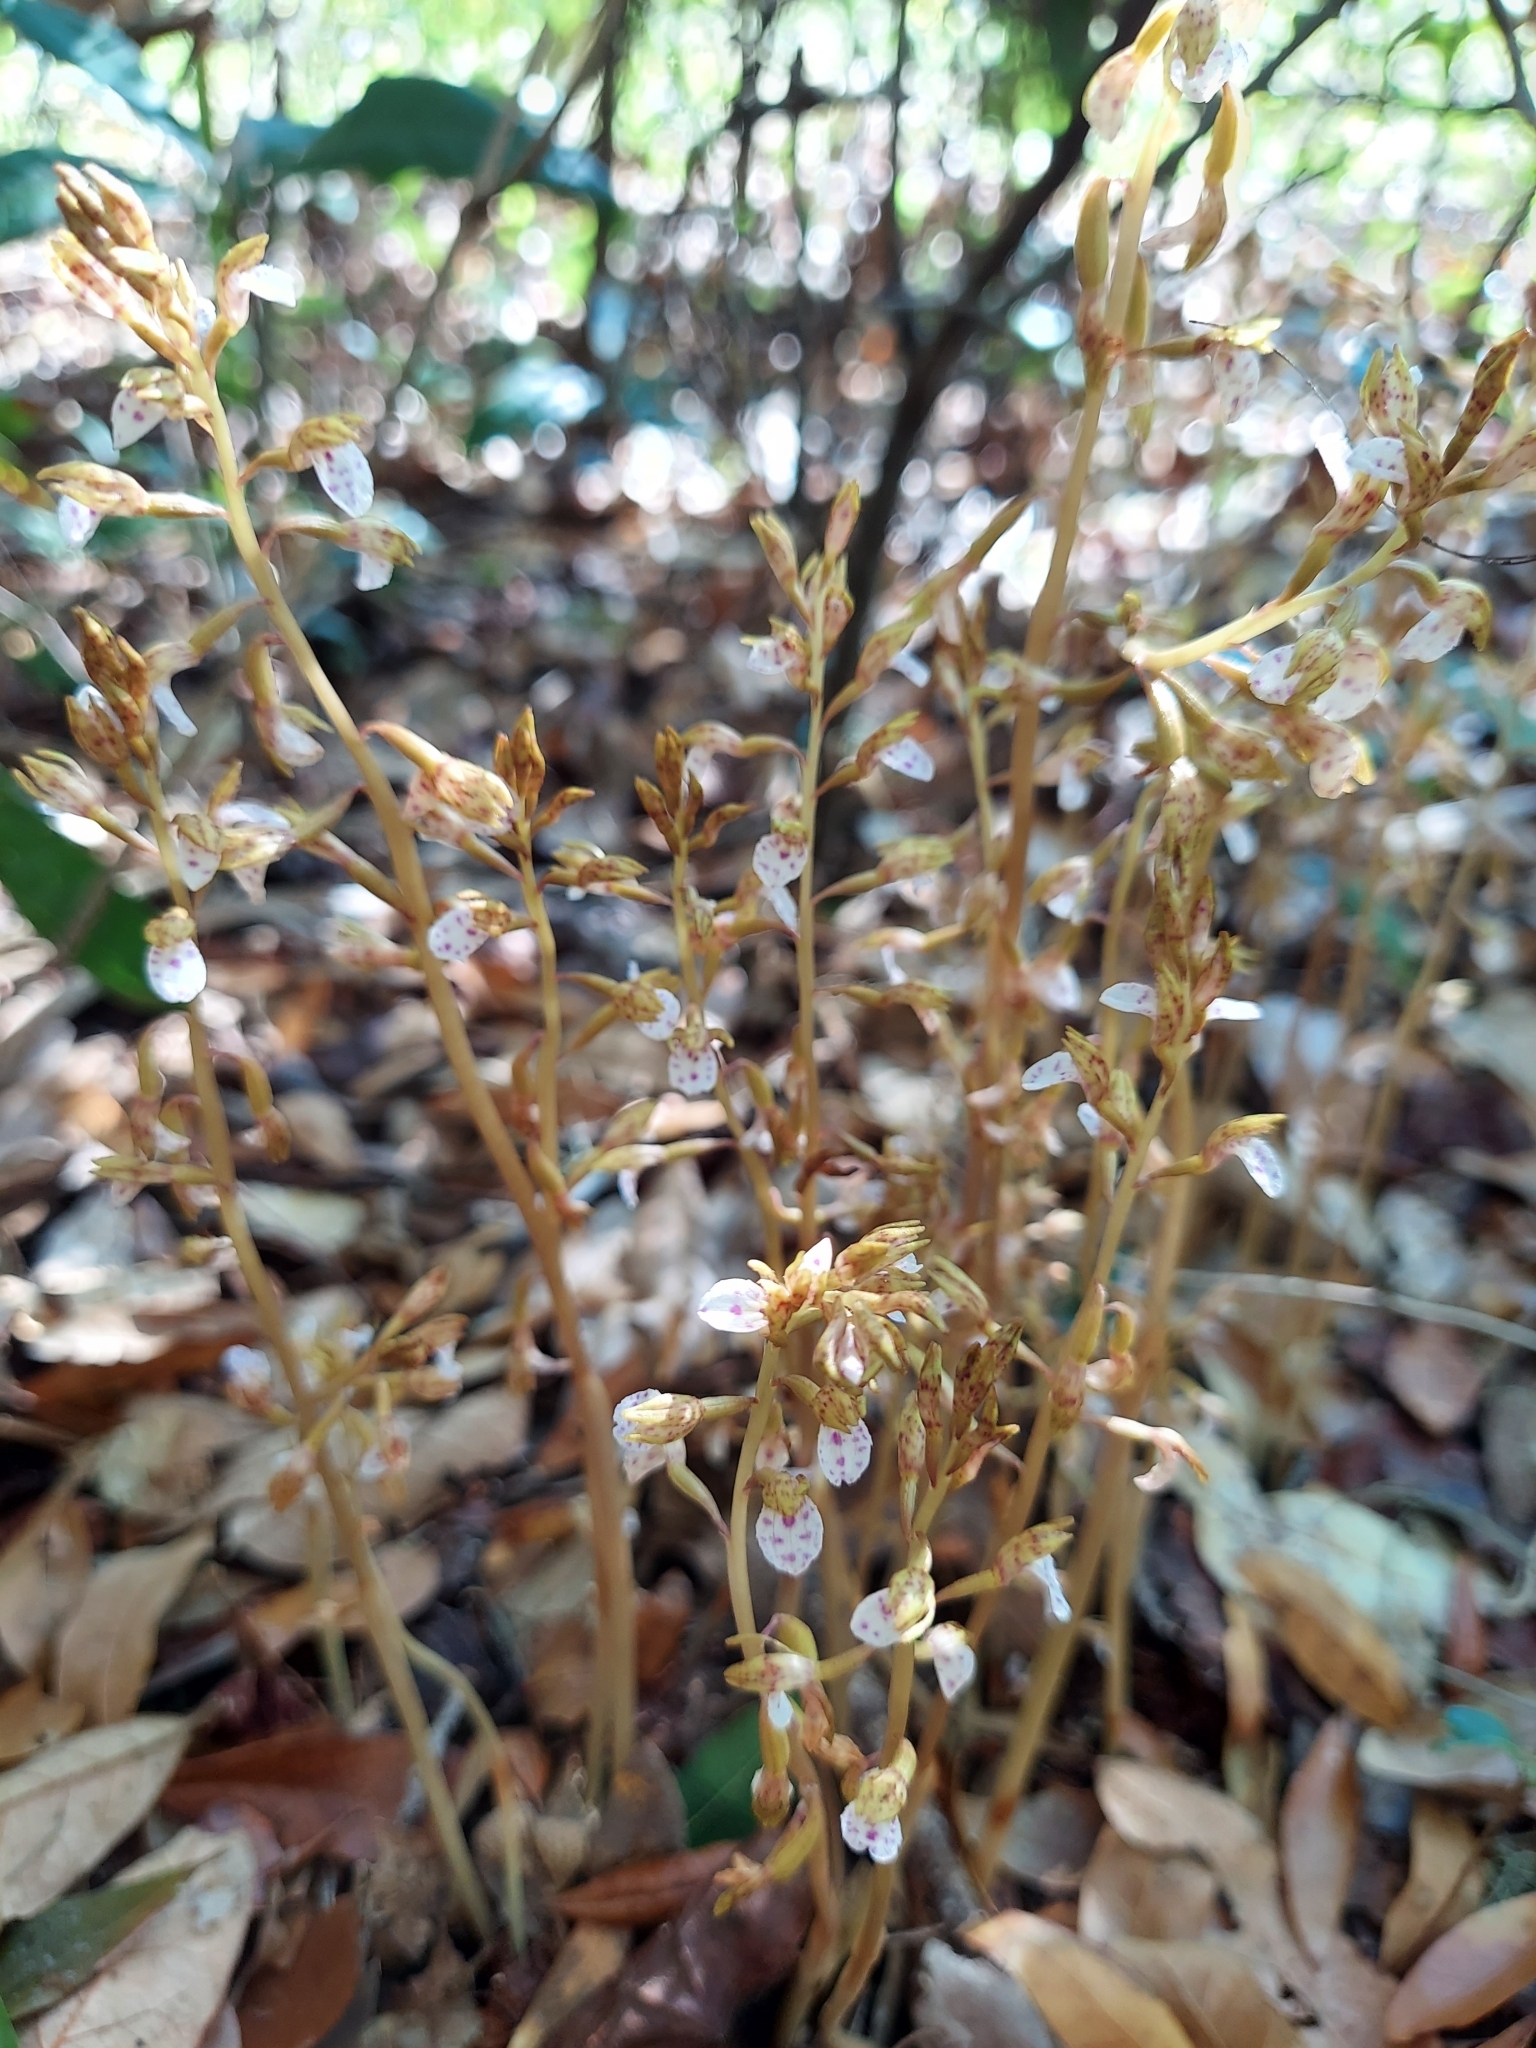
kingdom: Plantae
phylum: Tracheophyta
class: Liliopsida
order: Asparagales
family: Orchidaceae
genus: Corallorhiza
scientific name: Corallorhiza wisteriana
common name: Spring coralroot
